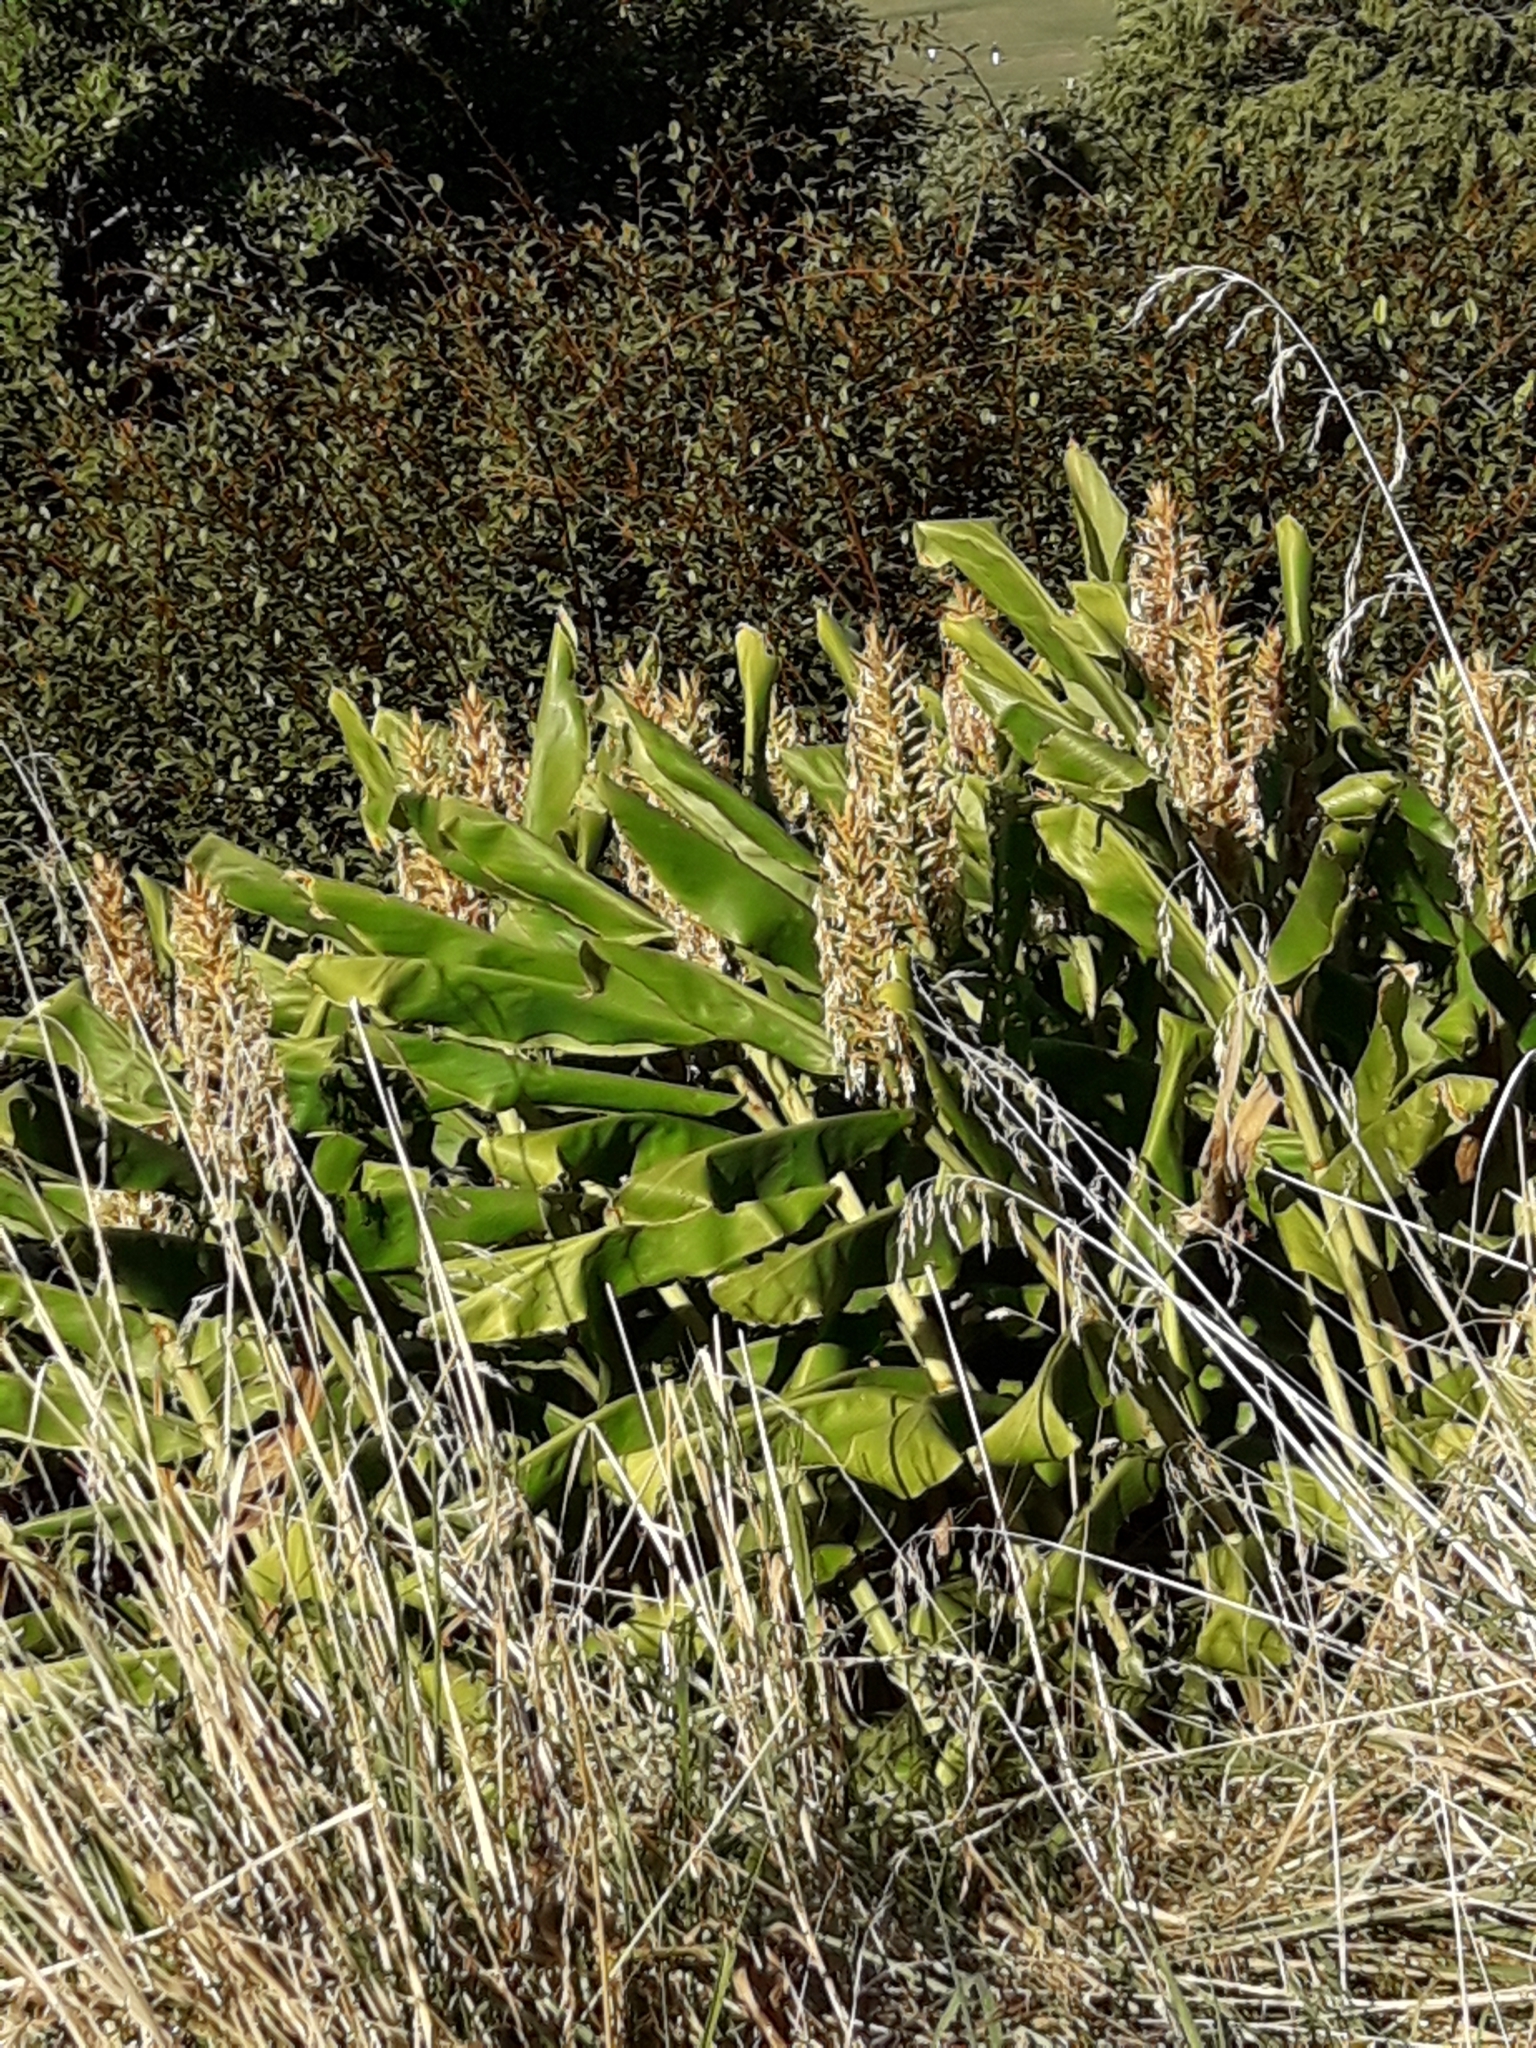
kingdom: Plantae
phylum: Tracheophyta
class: Liliopsida
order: Zingiberales
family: Zingiberaceae
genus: Hedychium
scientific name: Hedychium gardnerianum
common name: Himalayan ginger
